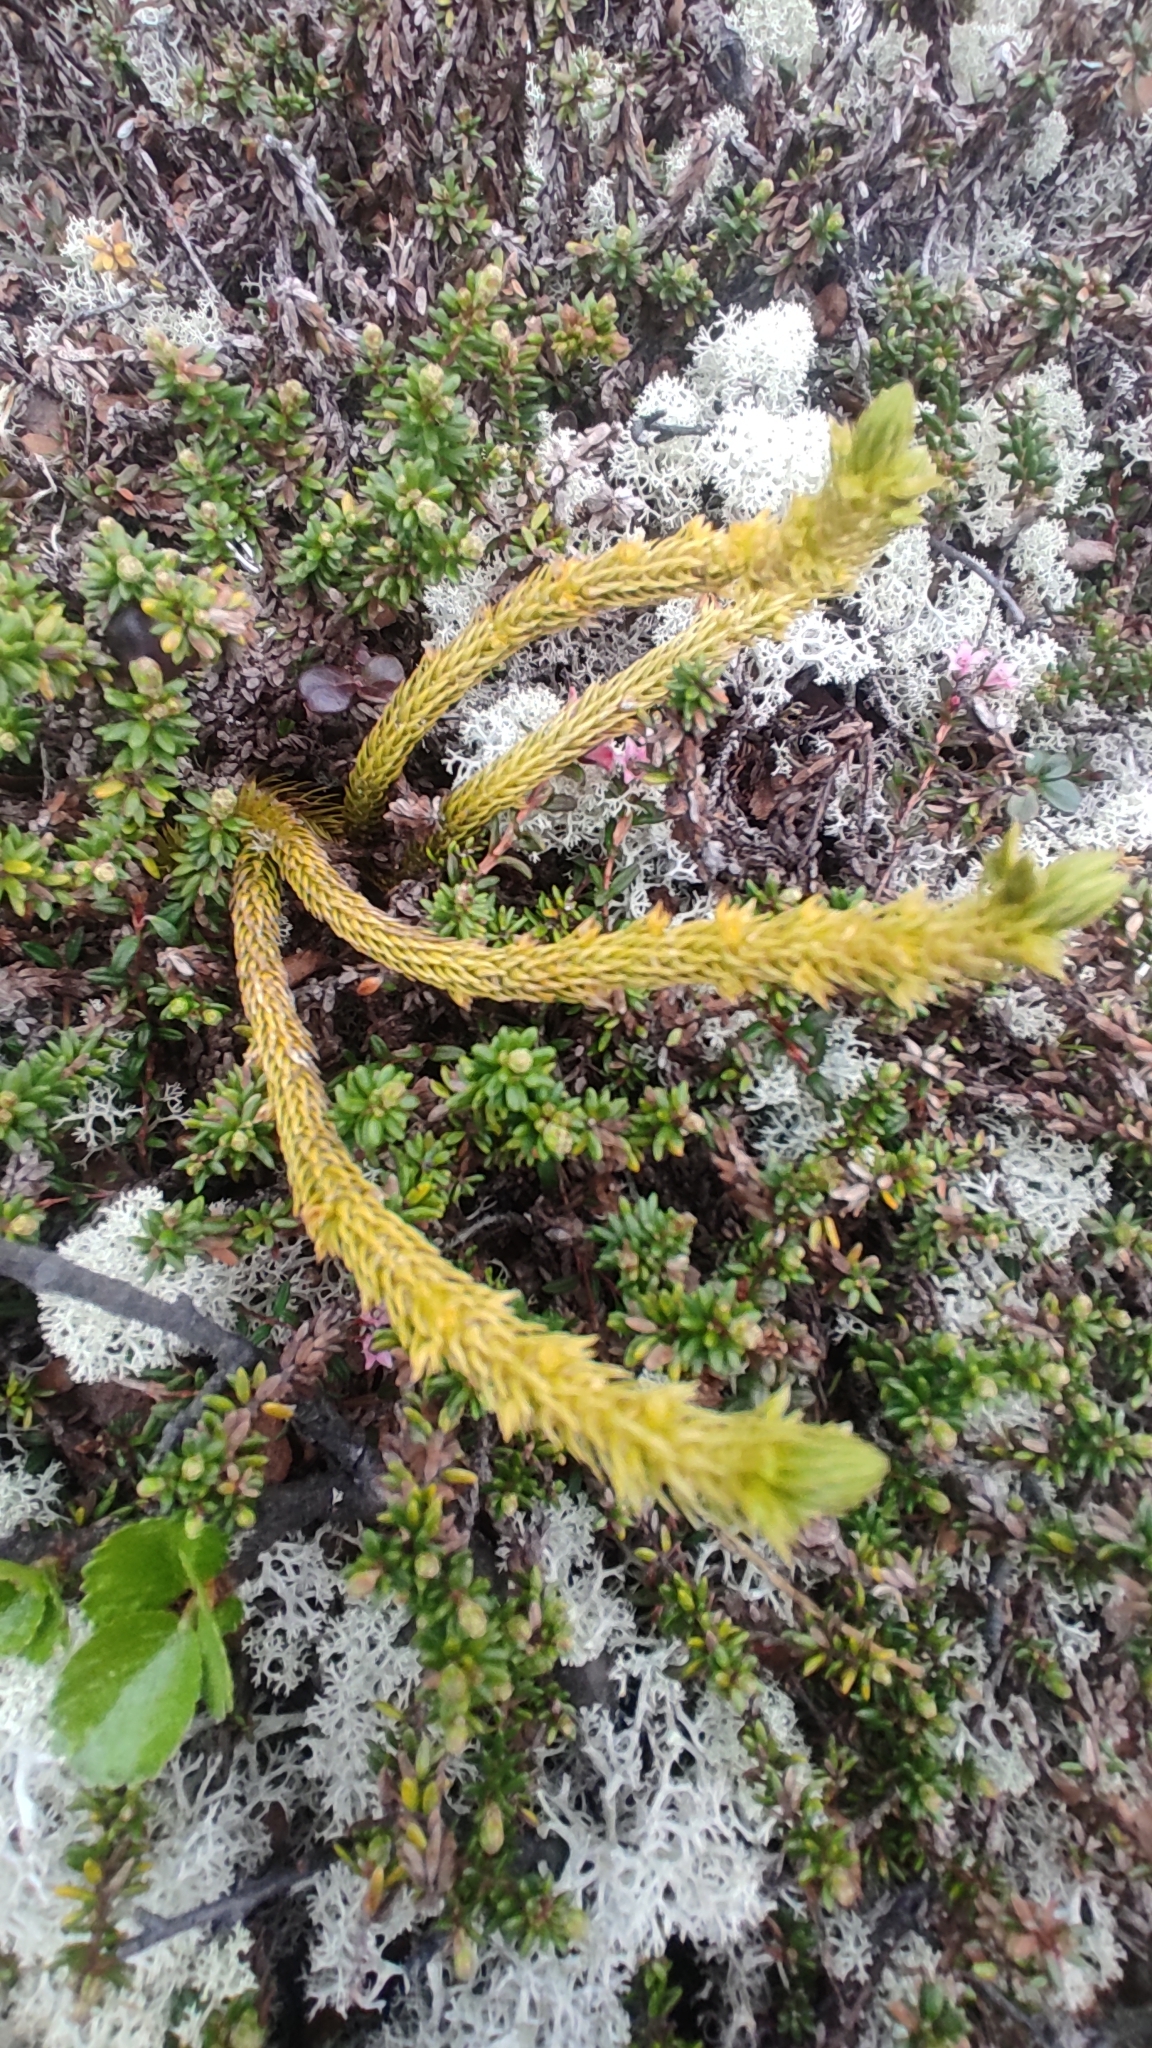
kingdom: Plantae
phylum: Tracheophyta
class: Lycopodiopsida
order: Lycopodiales
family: Lycopodiaceae
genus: Huperzia
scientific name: Huperzia selago
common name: Northern firmoss
